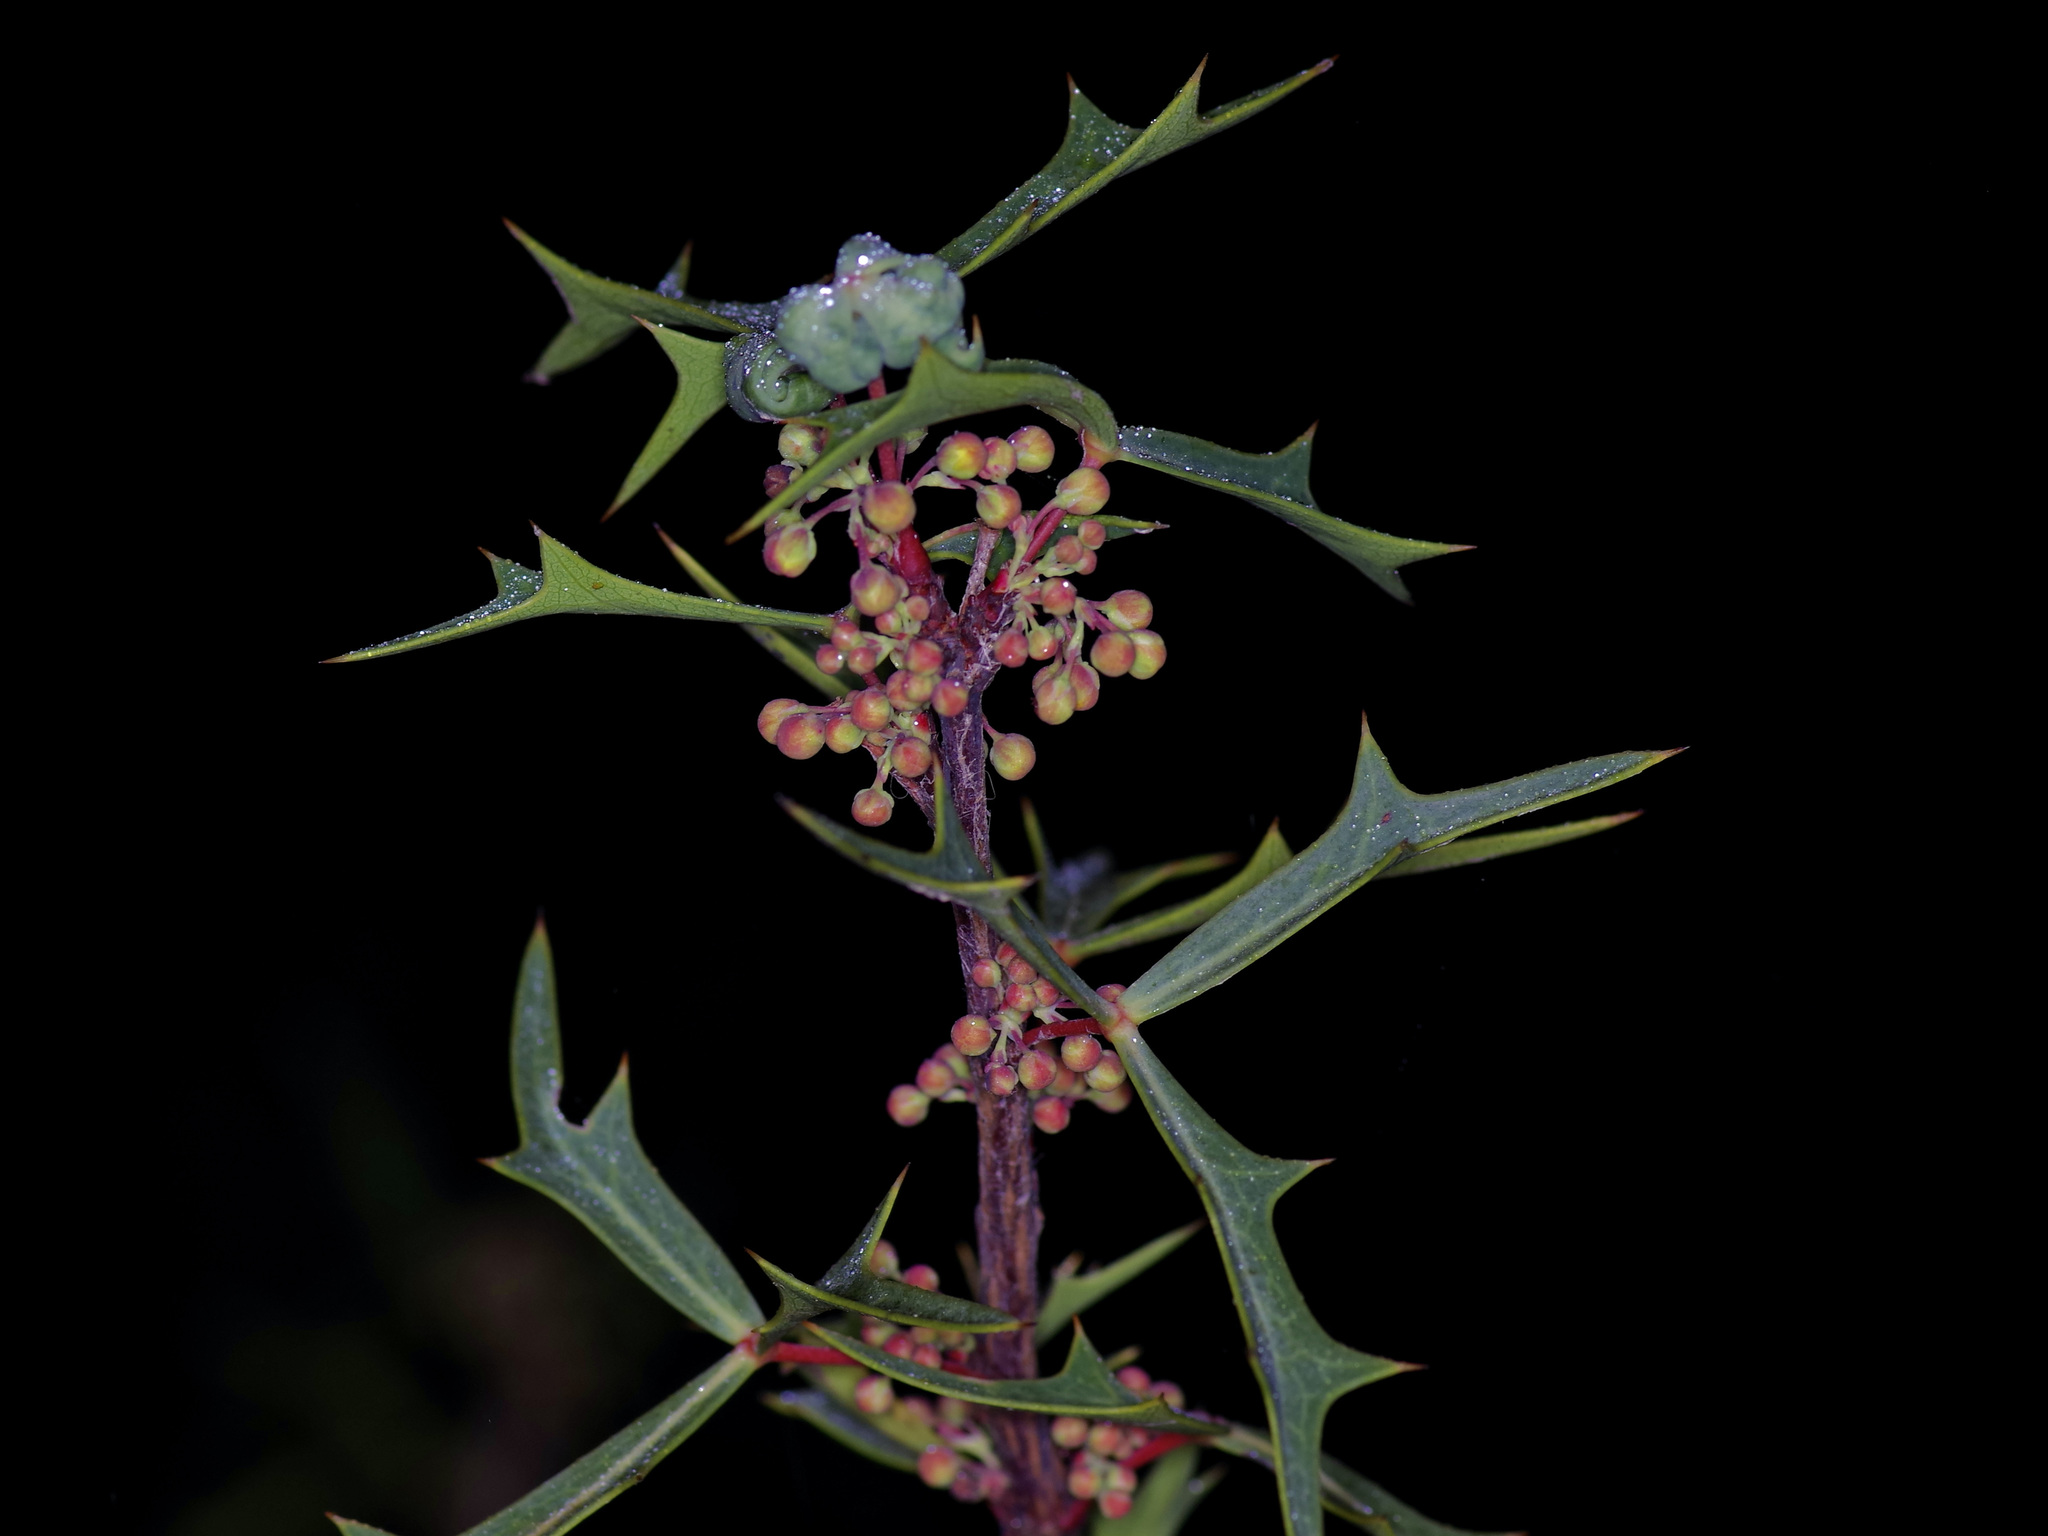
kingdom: Plantae
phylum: Tracheophyta
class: Magnoliopsida
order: Ranunculales
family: Berberidaceae
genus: Alloberberis
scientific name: Alloberberis trifoliolata
